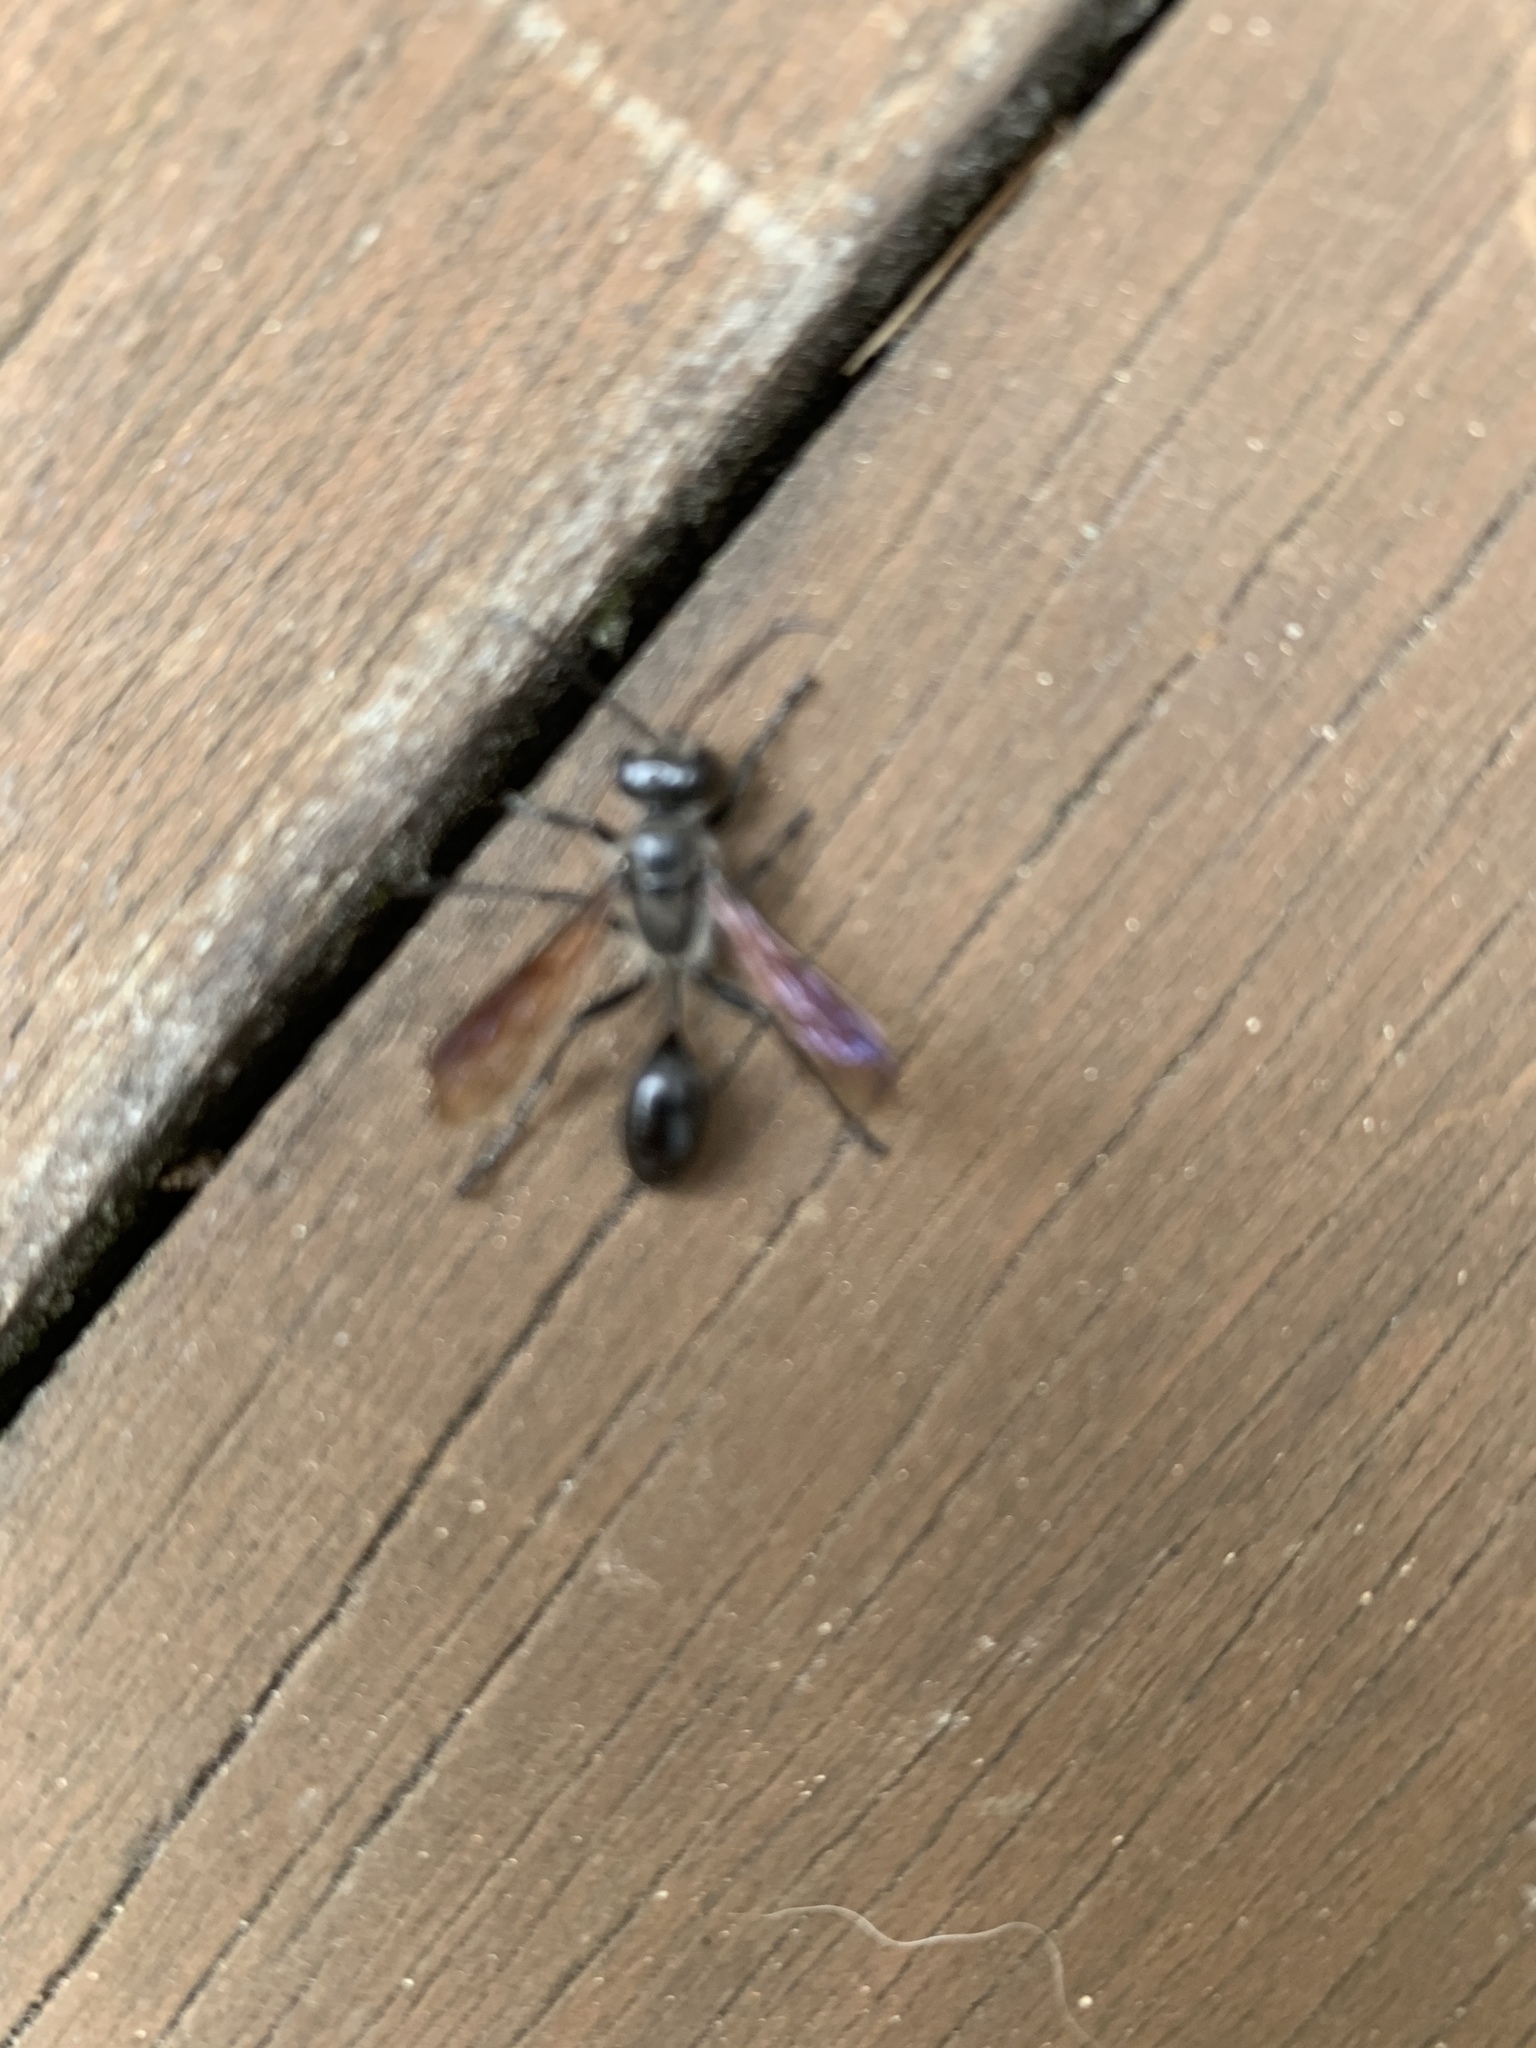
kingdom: Animalia
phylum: Arthropoda
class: Insecta
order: Hymenoptera
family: Sphecidae
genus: Isodontia
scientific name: Isodontia mexicana
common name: Mud dauber
